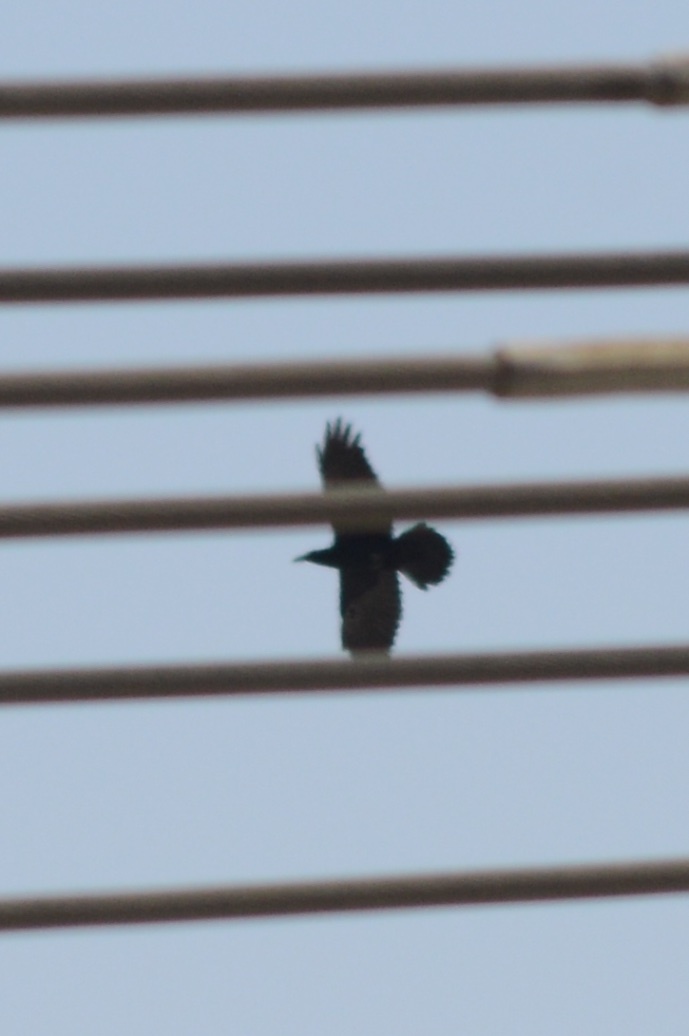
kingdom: Animalia
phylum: Chordata
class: Aves
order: Passeriformes
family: Corvidae
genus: Corvus
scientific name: Corvus brachyrhynchos
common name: American crow
